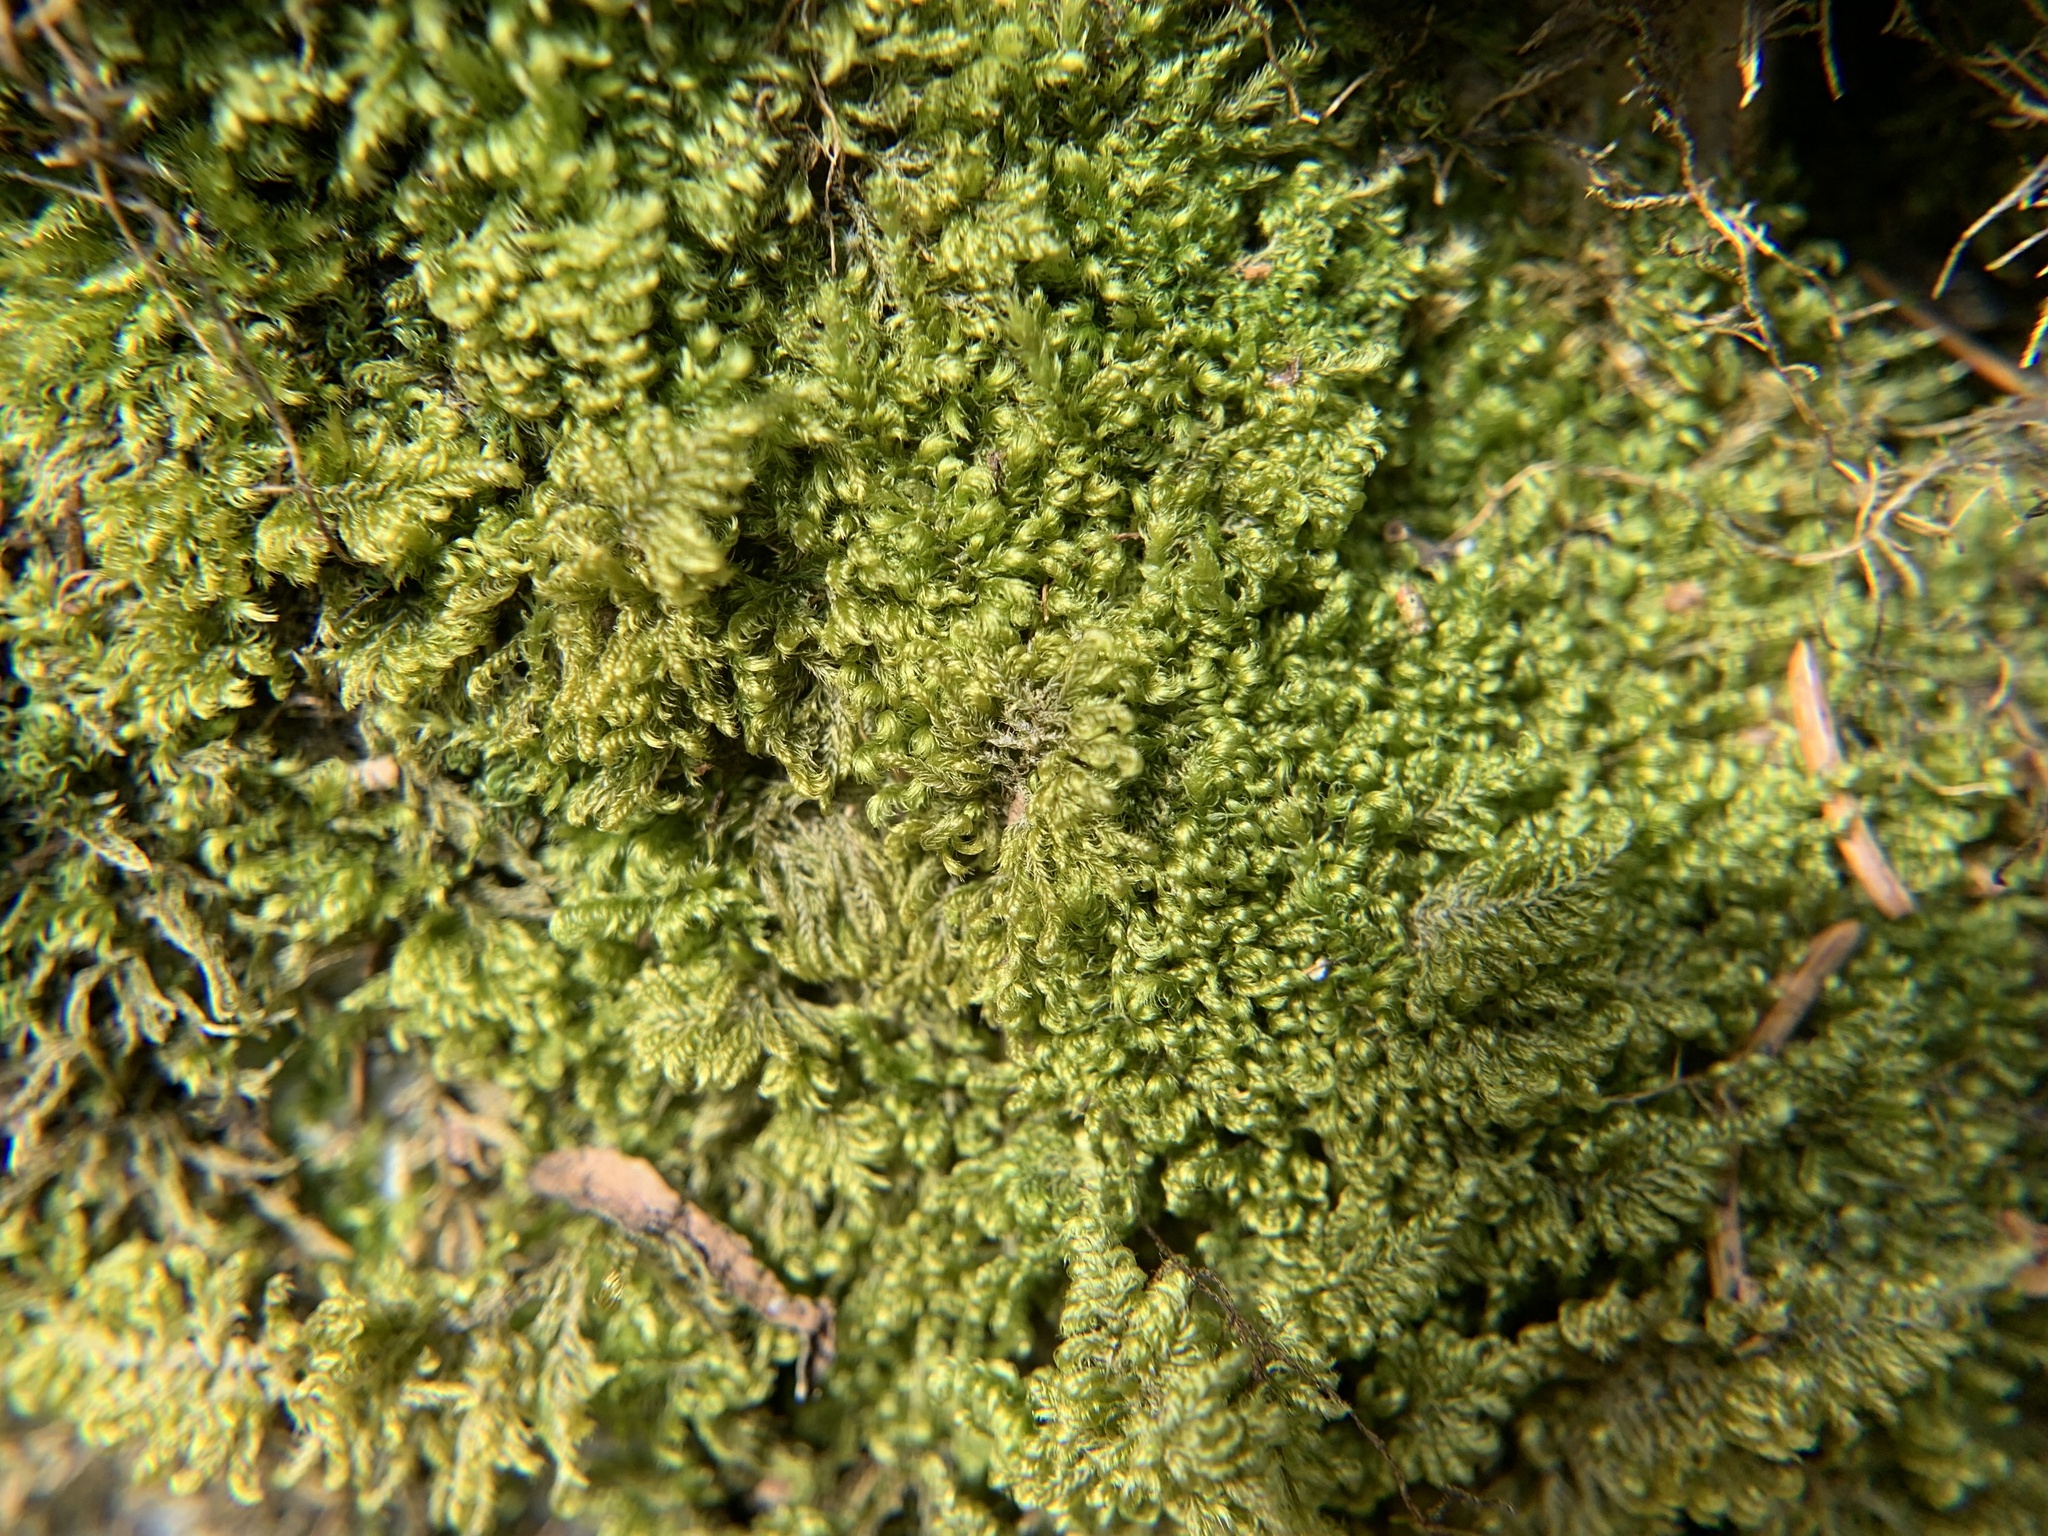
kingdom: Plantae
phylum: Bryophyta
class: Bryopsida
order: Hypnales
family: Myuriaceae
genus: Ctenidium
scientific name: Ctenidium molluscum
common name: Chalk comb-moss
